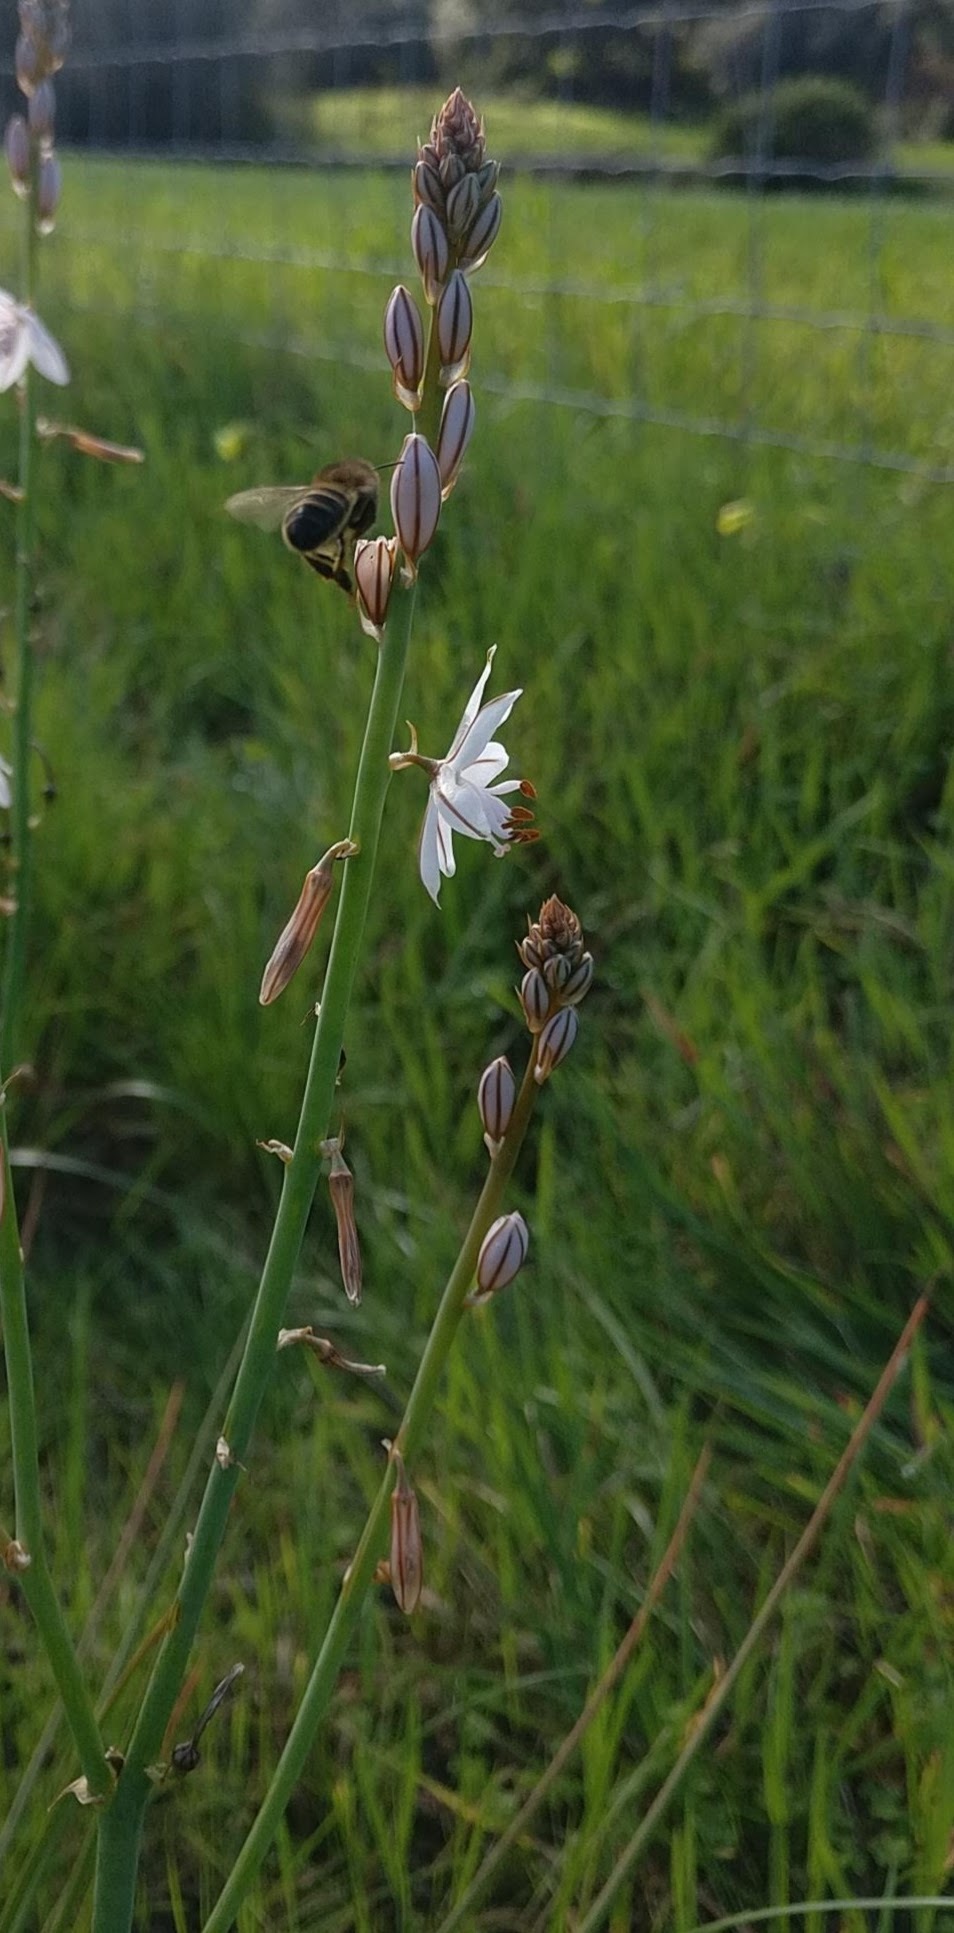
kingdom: Plantae
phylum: Tracheophyta
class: Liliopsida
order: Asparagales
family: Asphodelaceae
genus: Asphodelus
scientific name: Asphodelus fistulosus
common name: Onionweed
